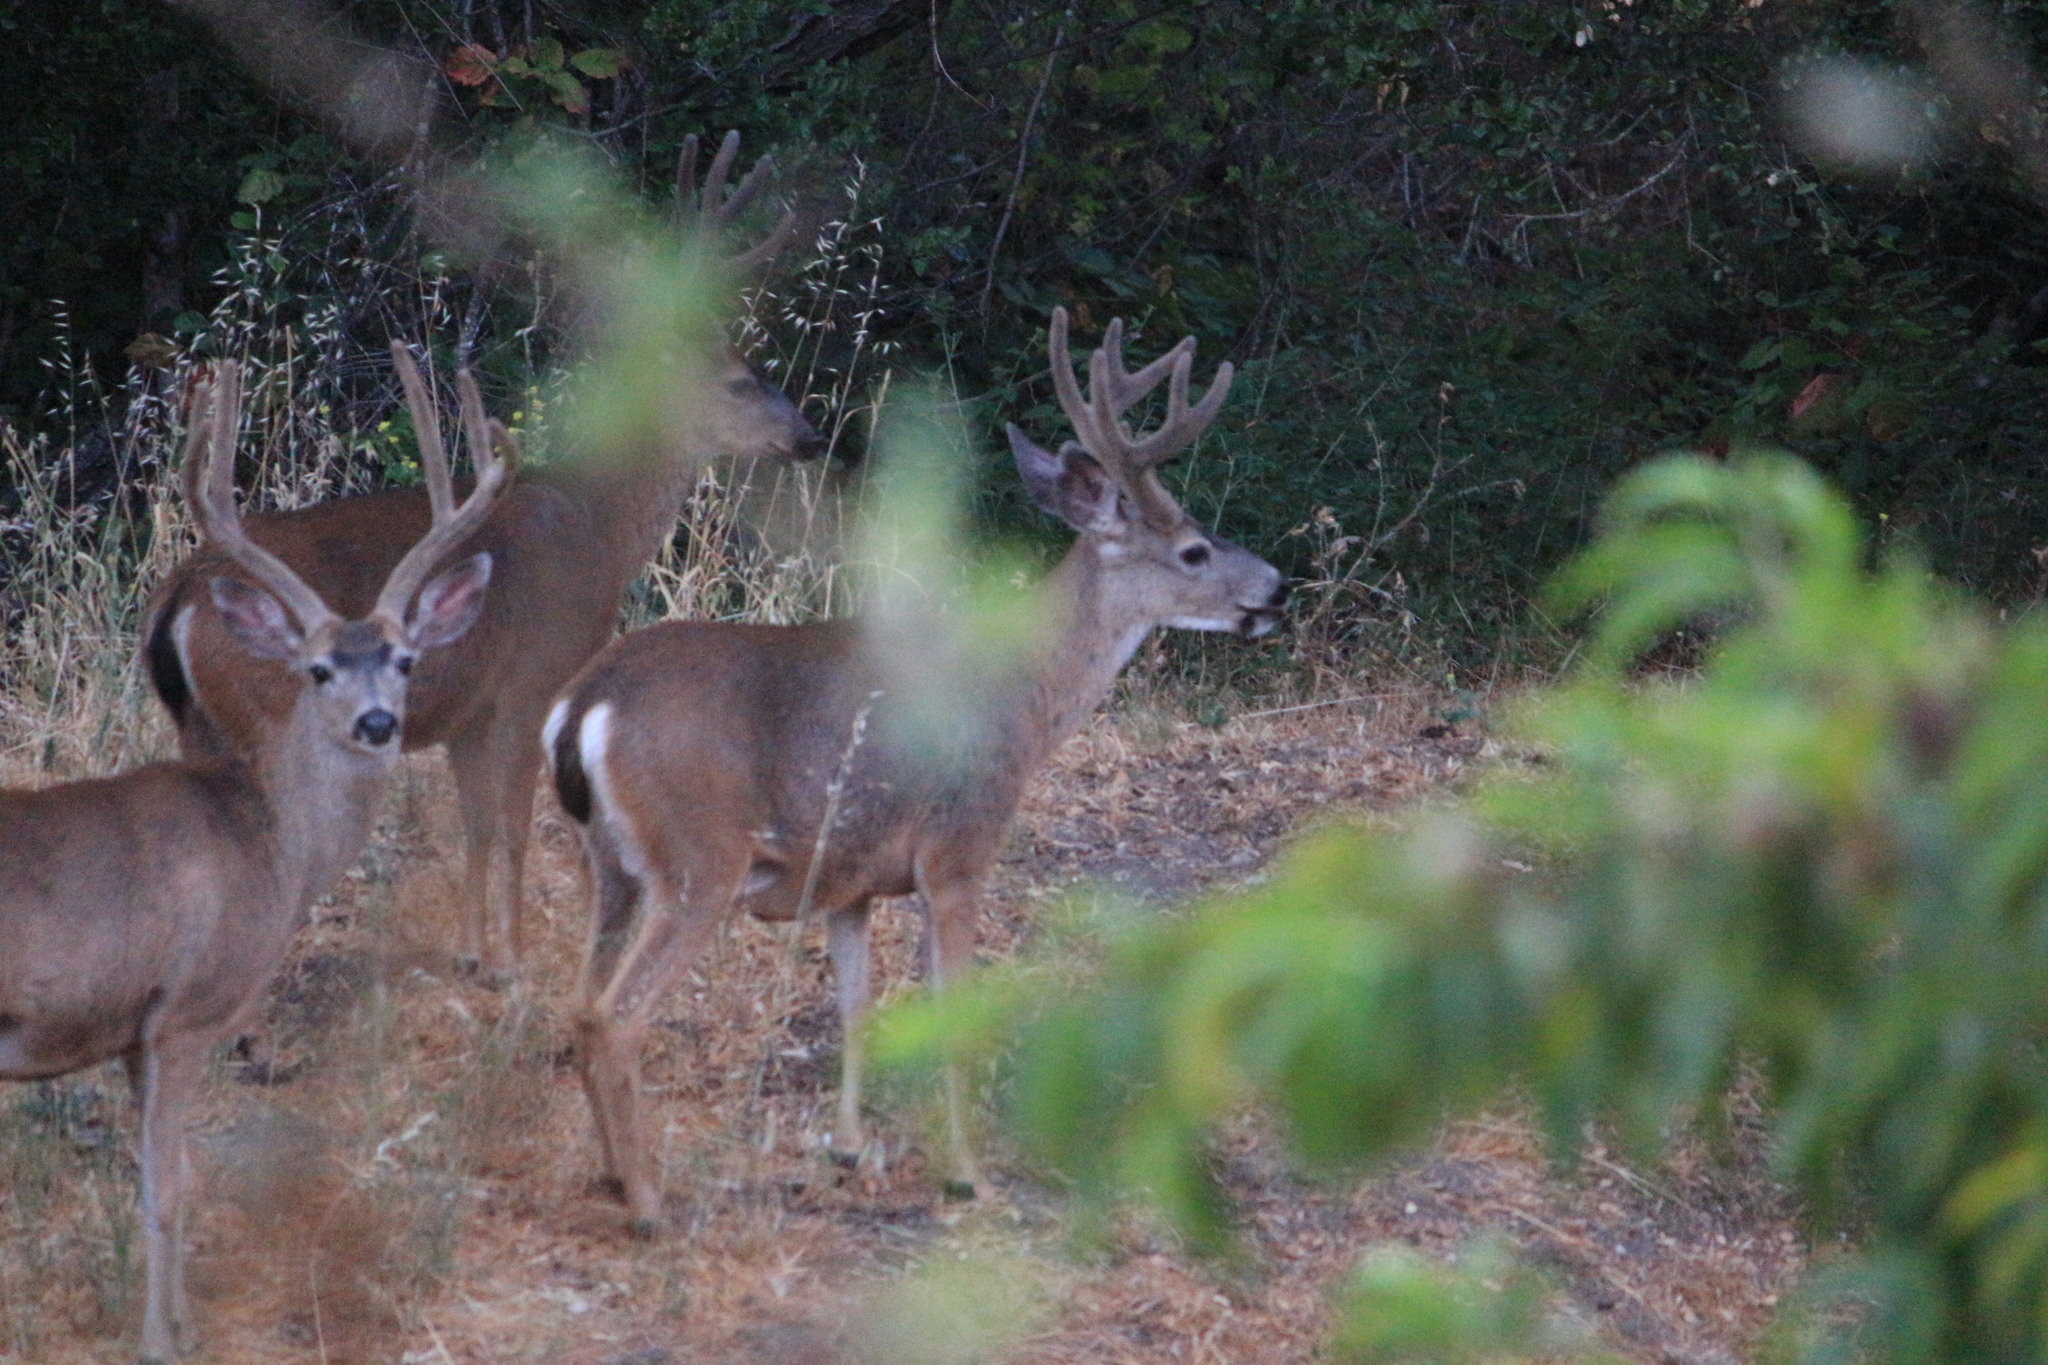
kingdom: Animalia
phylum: Chordata
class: Mammalia
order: Artiodactyla
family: Cervidae
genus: Odocoileus
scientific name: Odocoileus hemionus
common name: Mule deer
